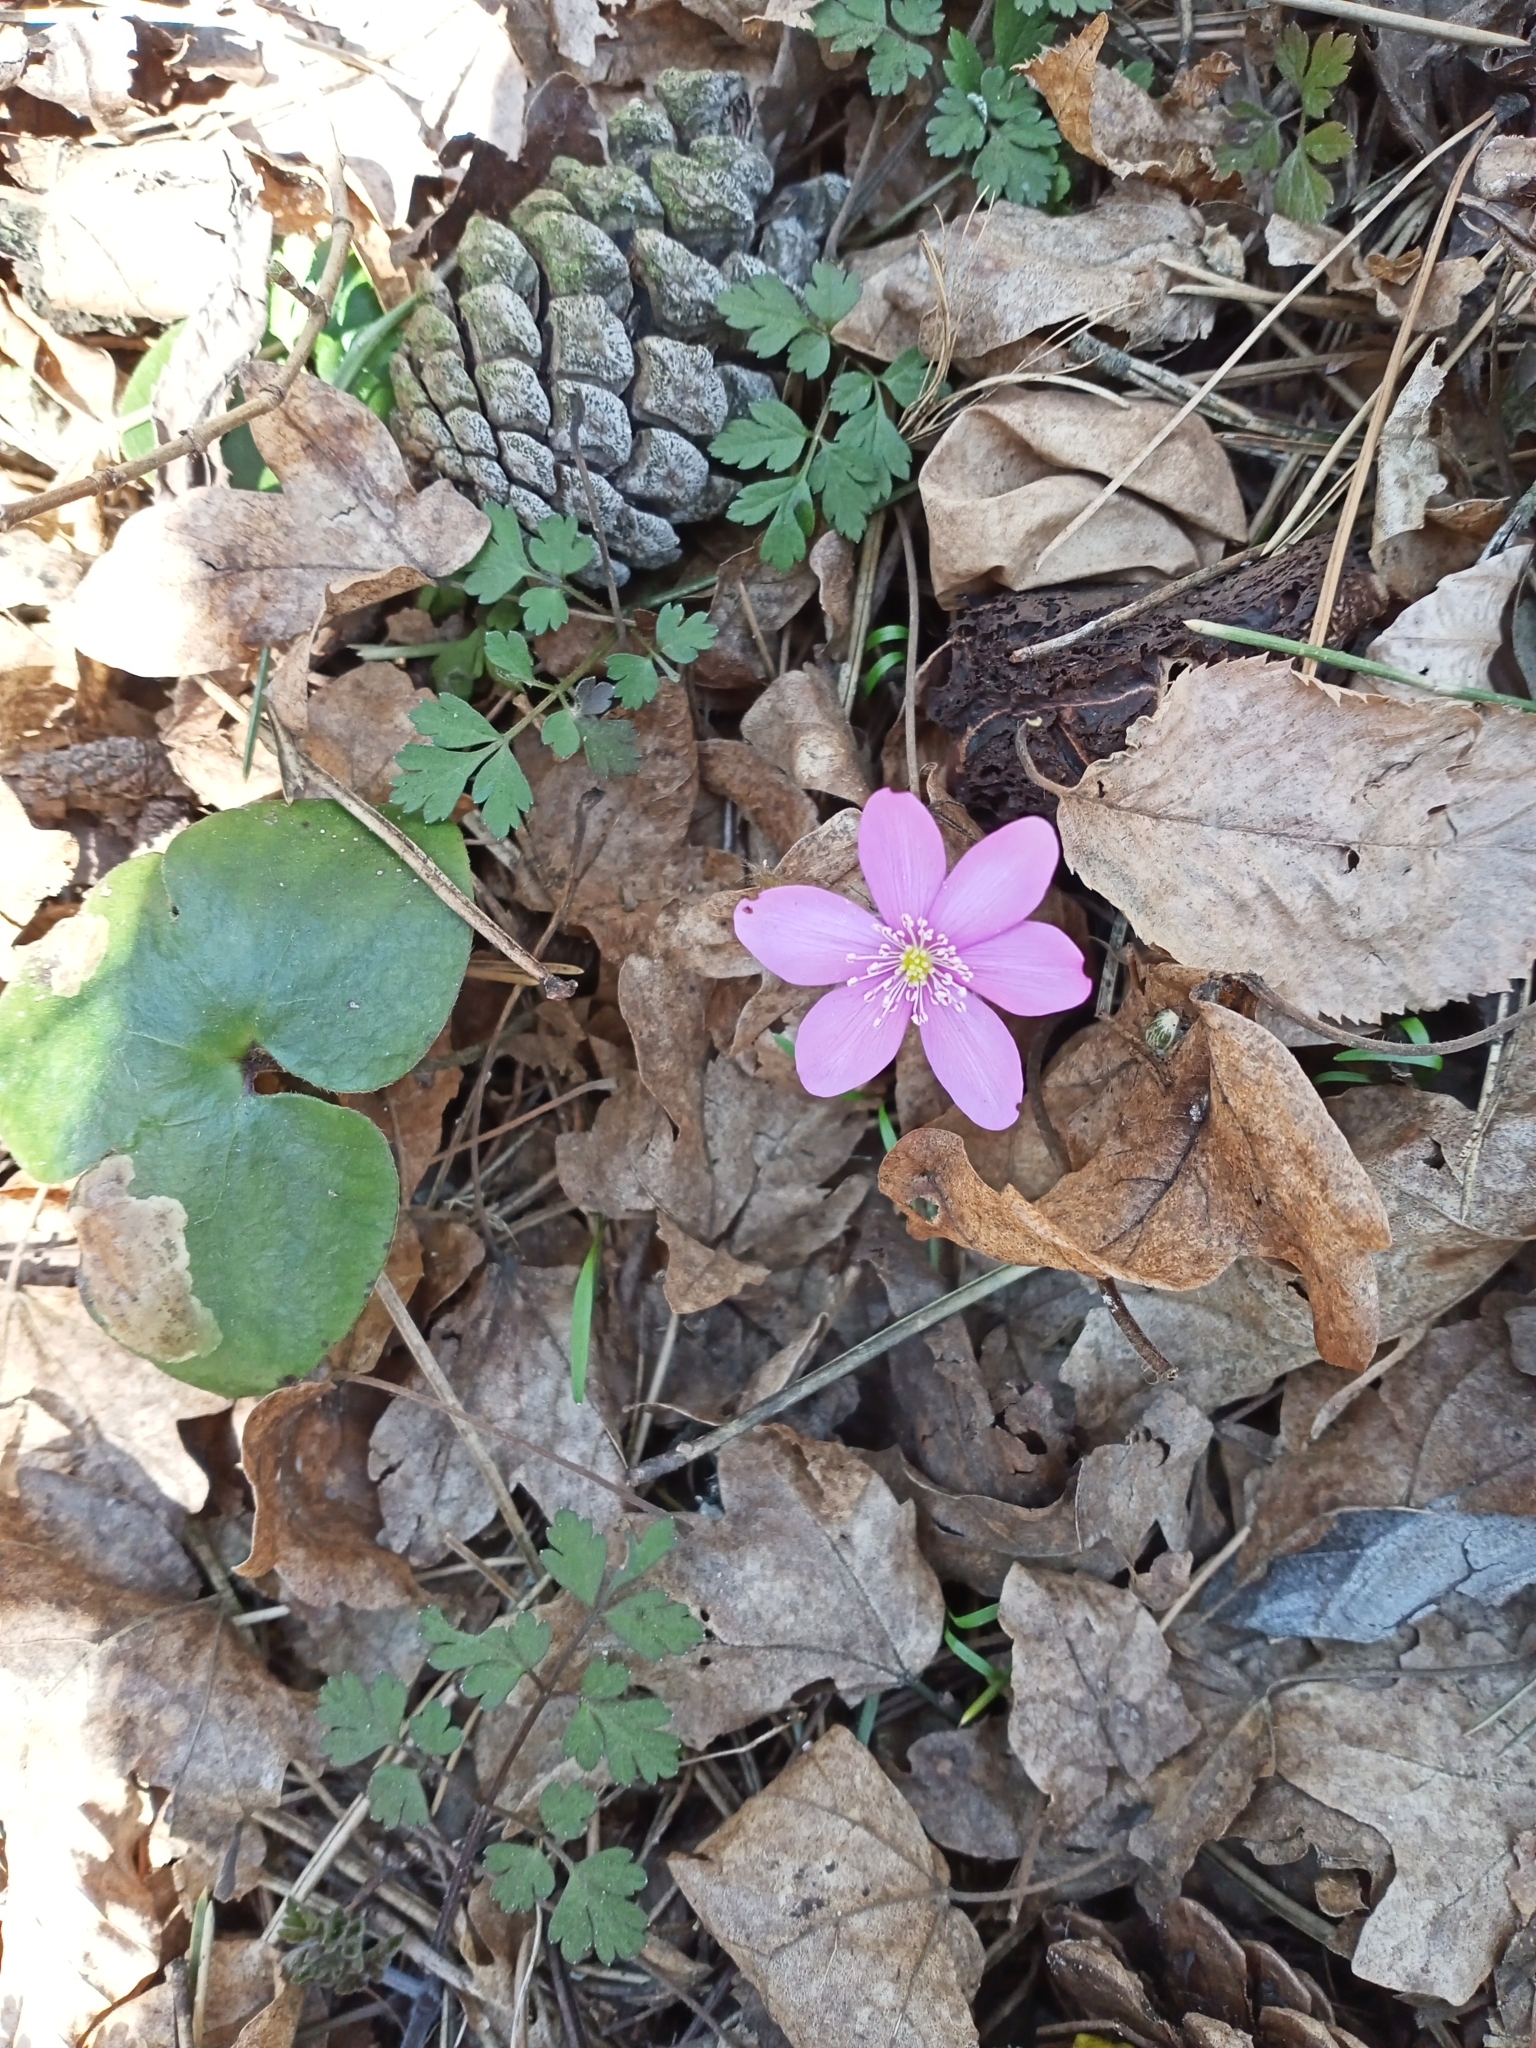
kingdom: Plantae
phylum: Tracheophyta
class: Magnoliopsida
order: Ranunculales
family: Ranunculaceae
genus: Hepatica
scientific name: Hepatica nobilis
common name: Liverleaf
